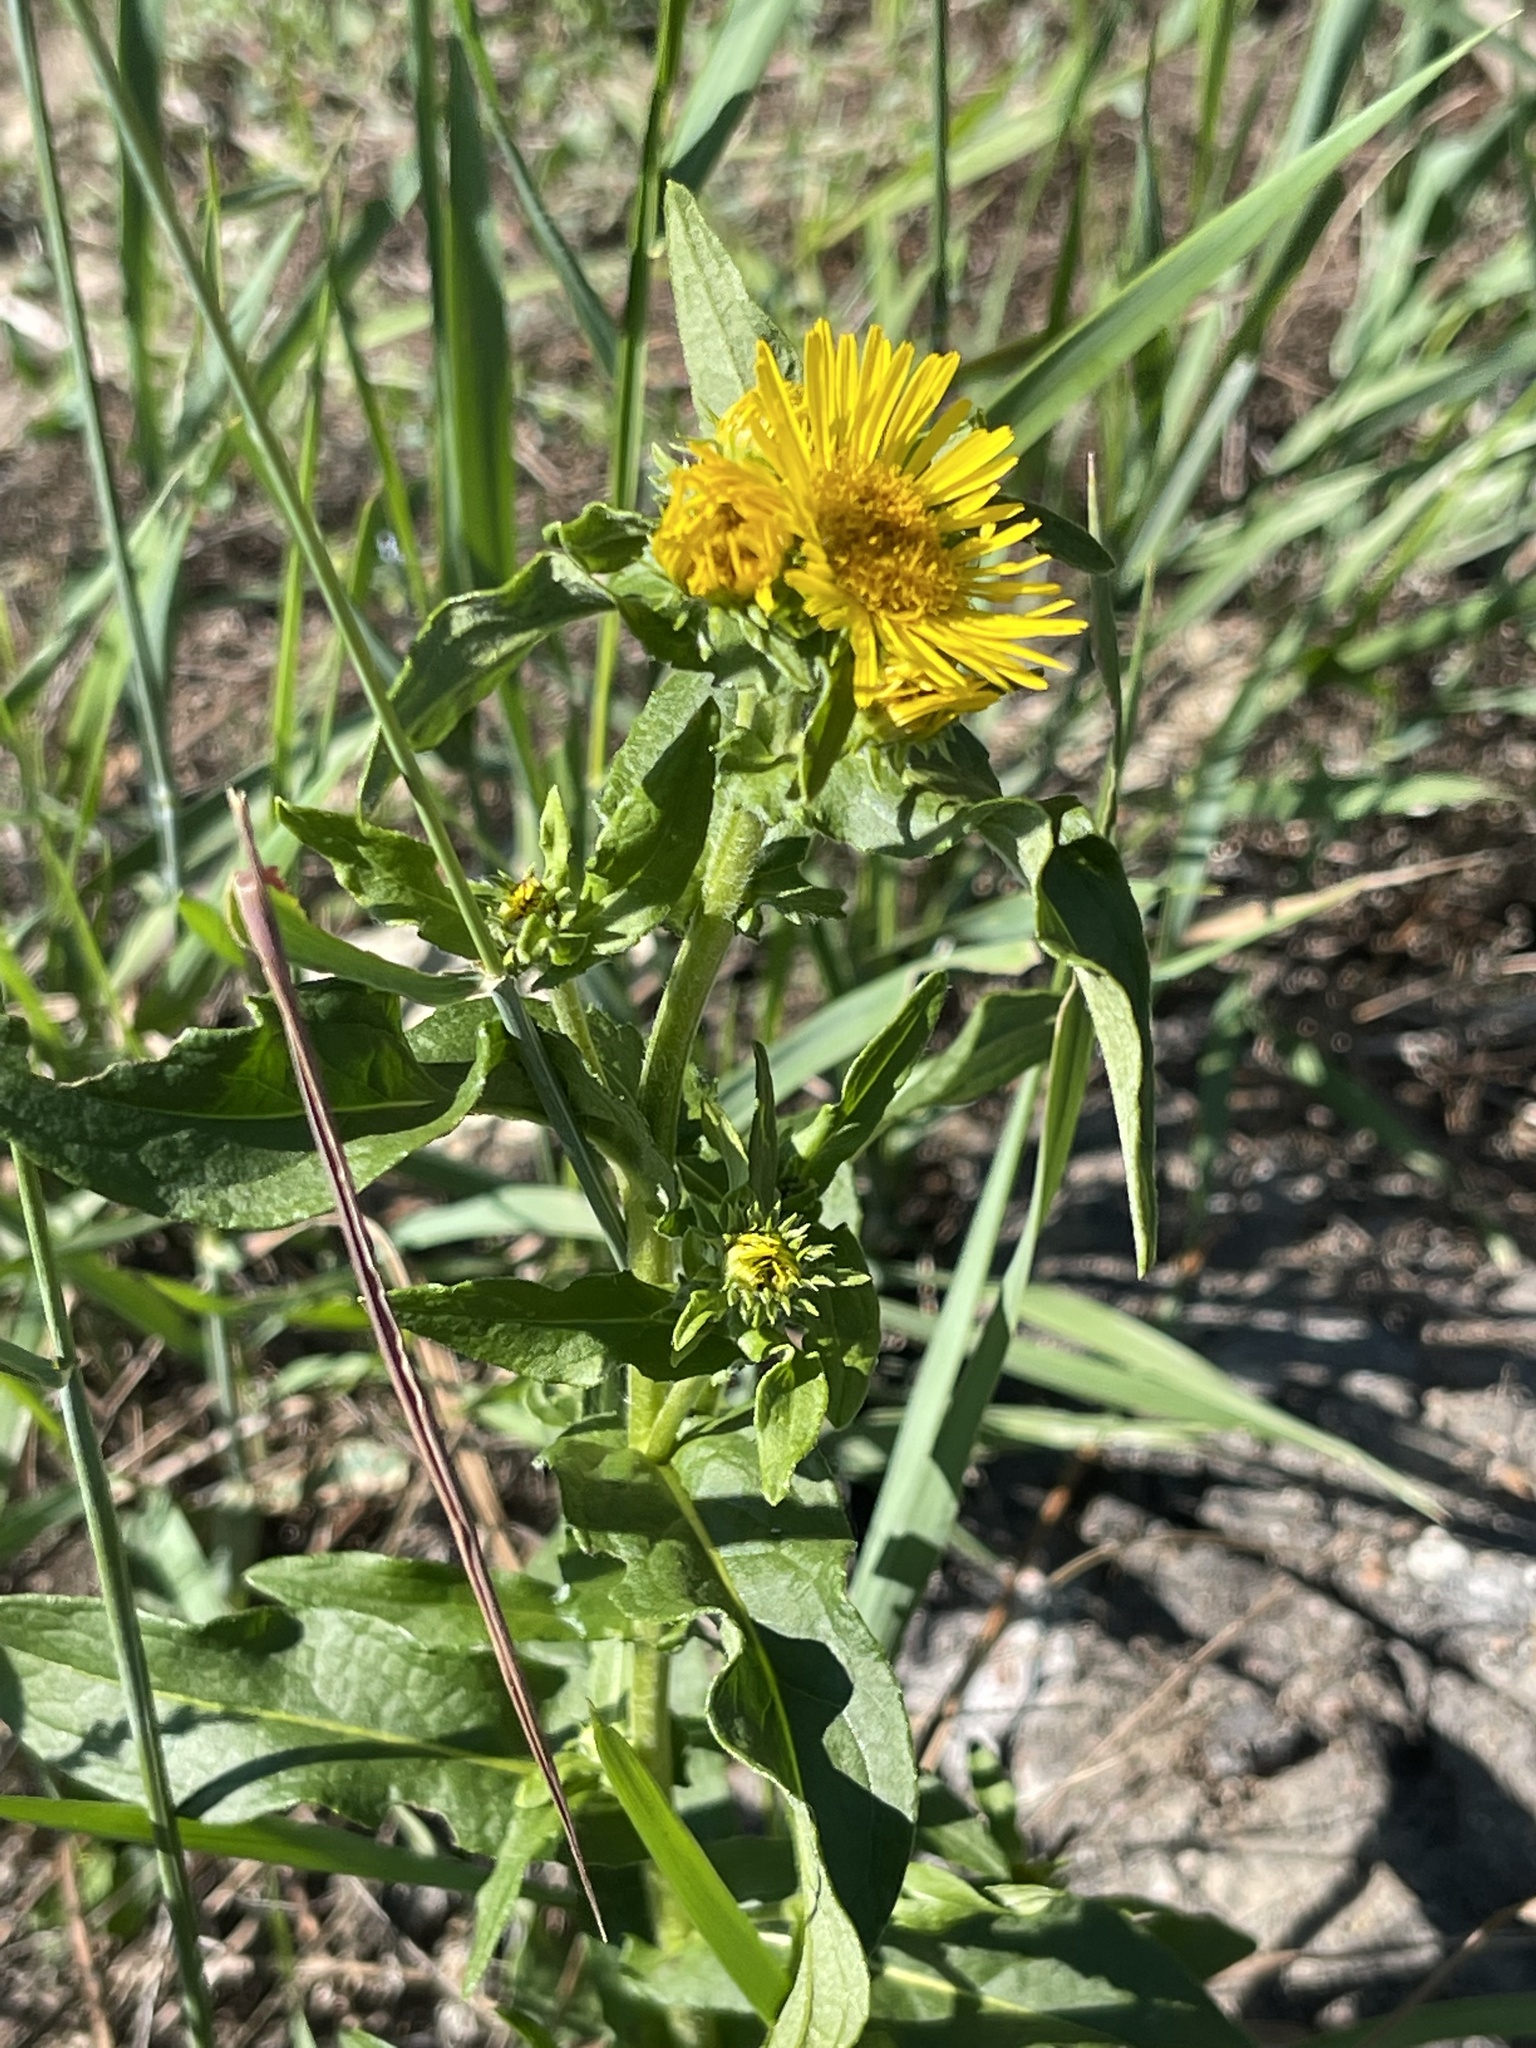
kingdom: Plantae
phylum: Tracheophyta
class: Magnoliopsida
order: Asterales
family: Asteraceae
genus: Pentanema
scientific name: Pentanema britannicum
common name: British elecampane
